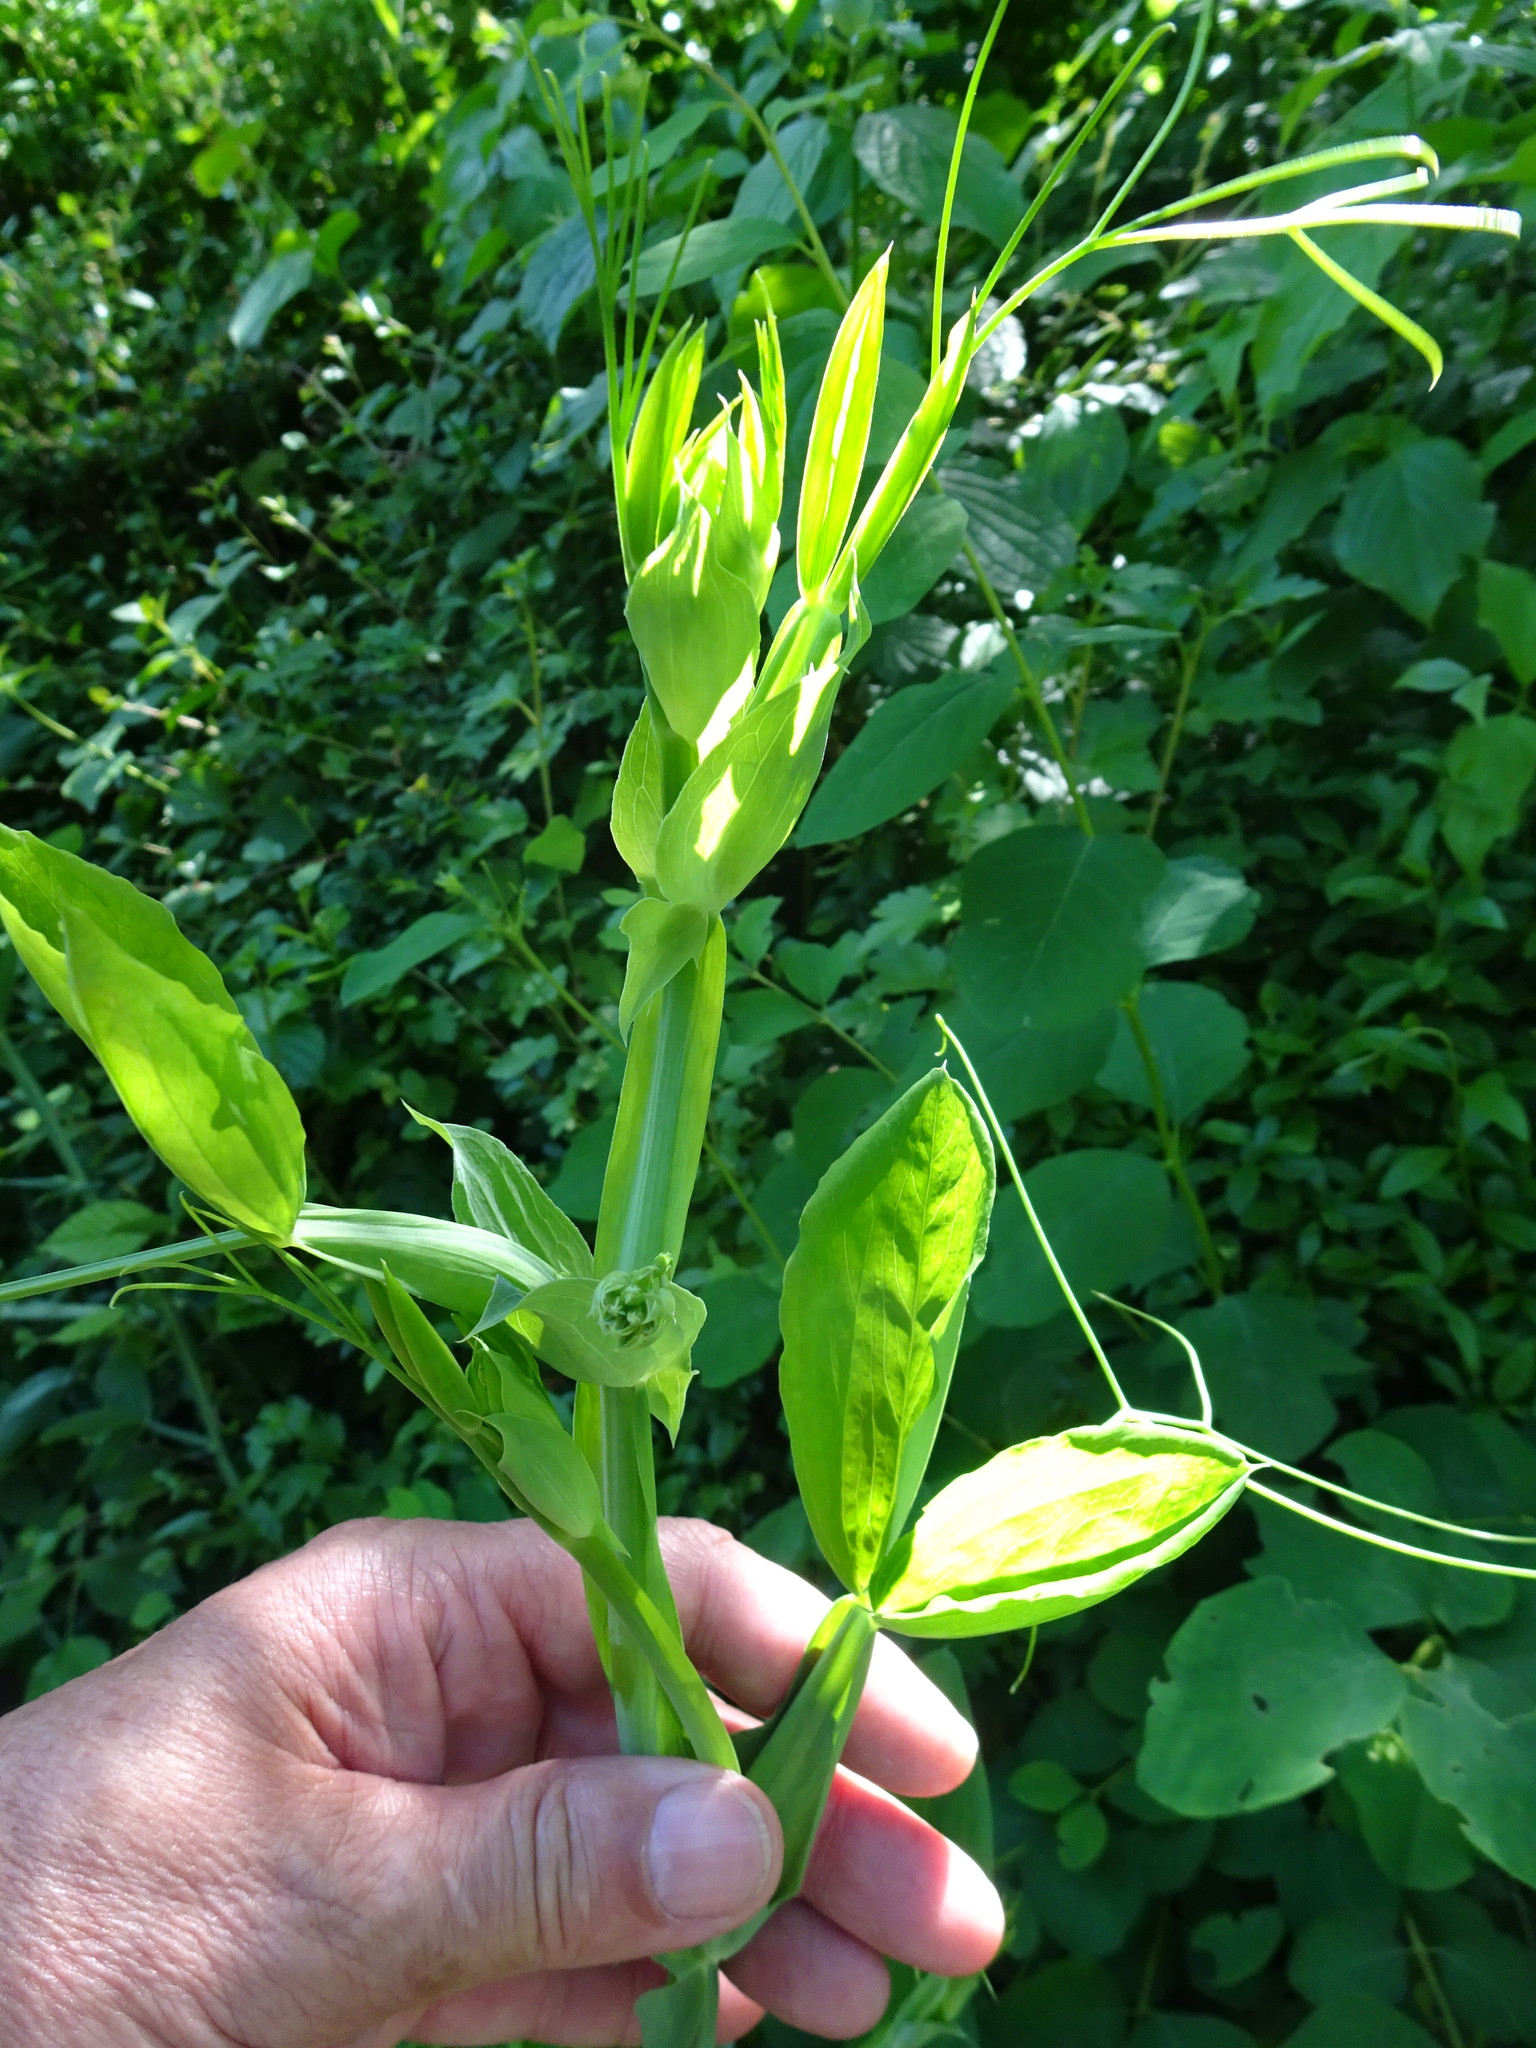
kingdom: Plantae
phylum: Tracheophyta
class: Magnoliopsida
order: Fabales
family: Fabaceae
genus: Lathyrus
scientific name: Lathyrus latifolius
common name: Perennial pea
